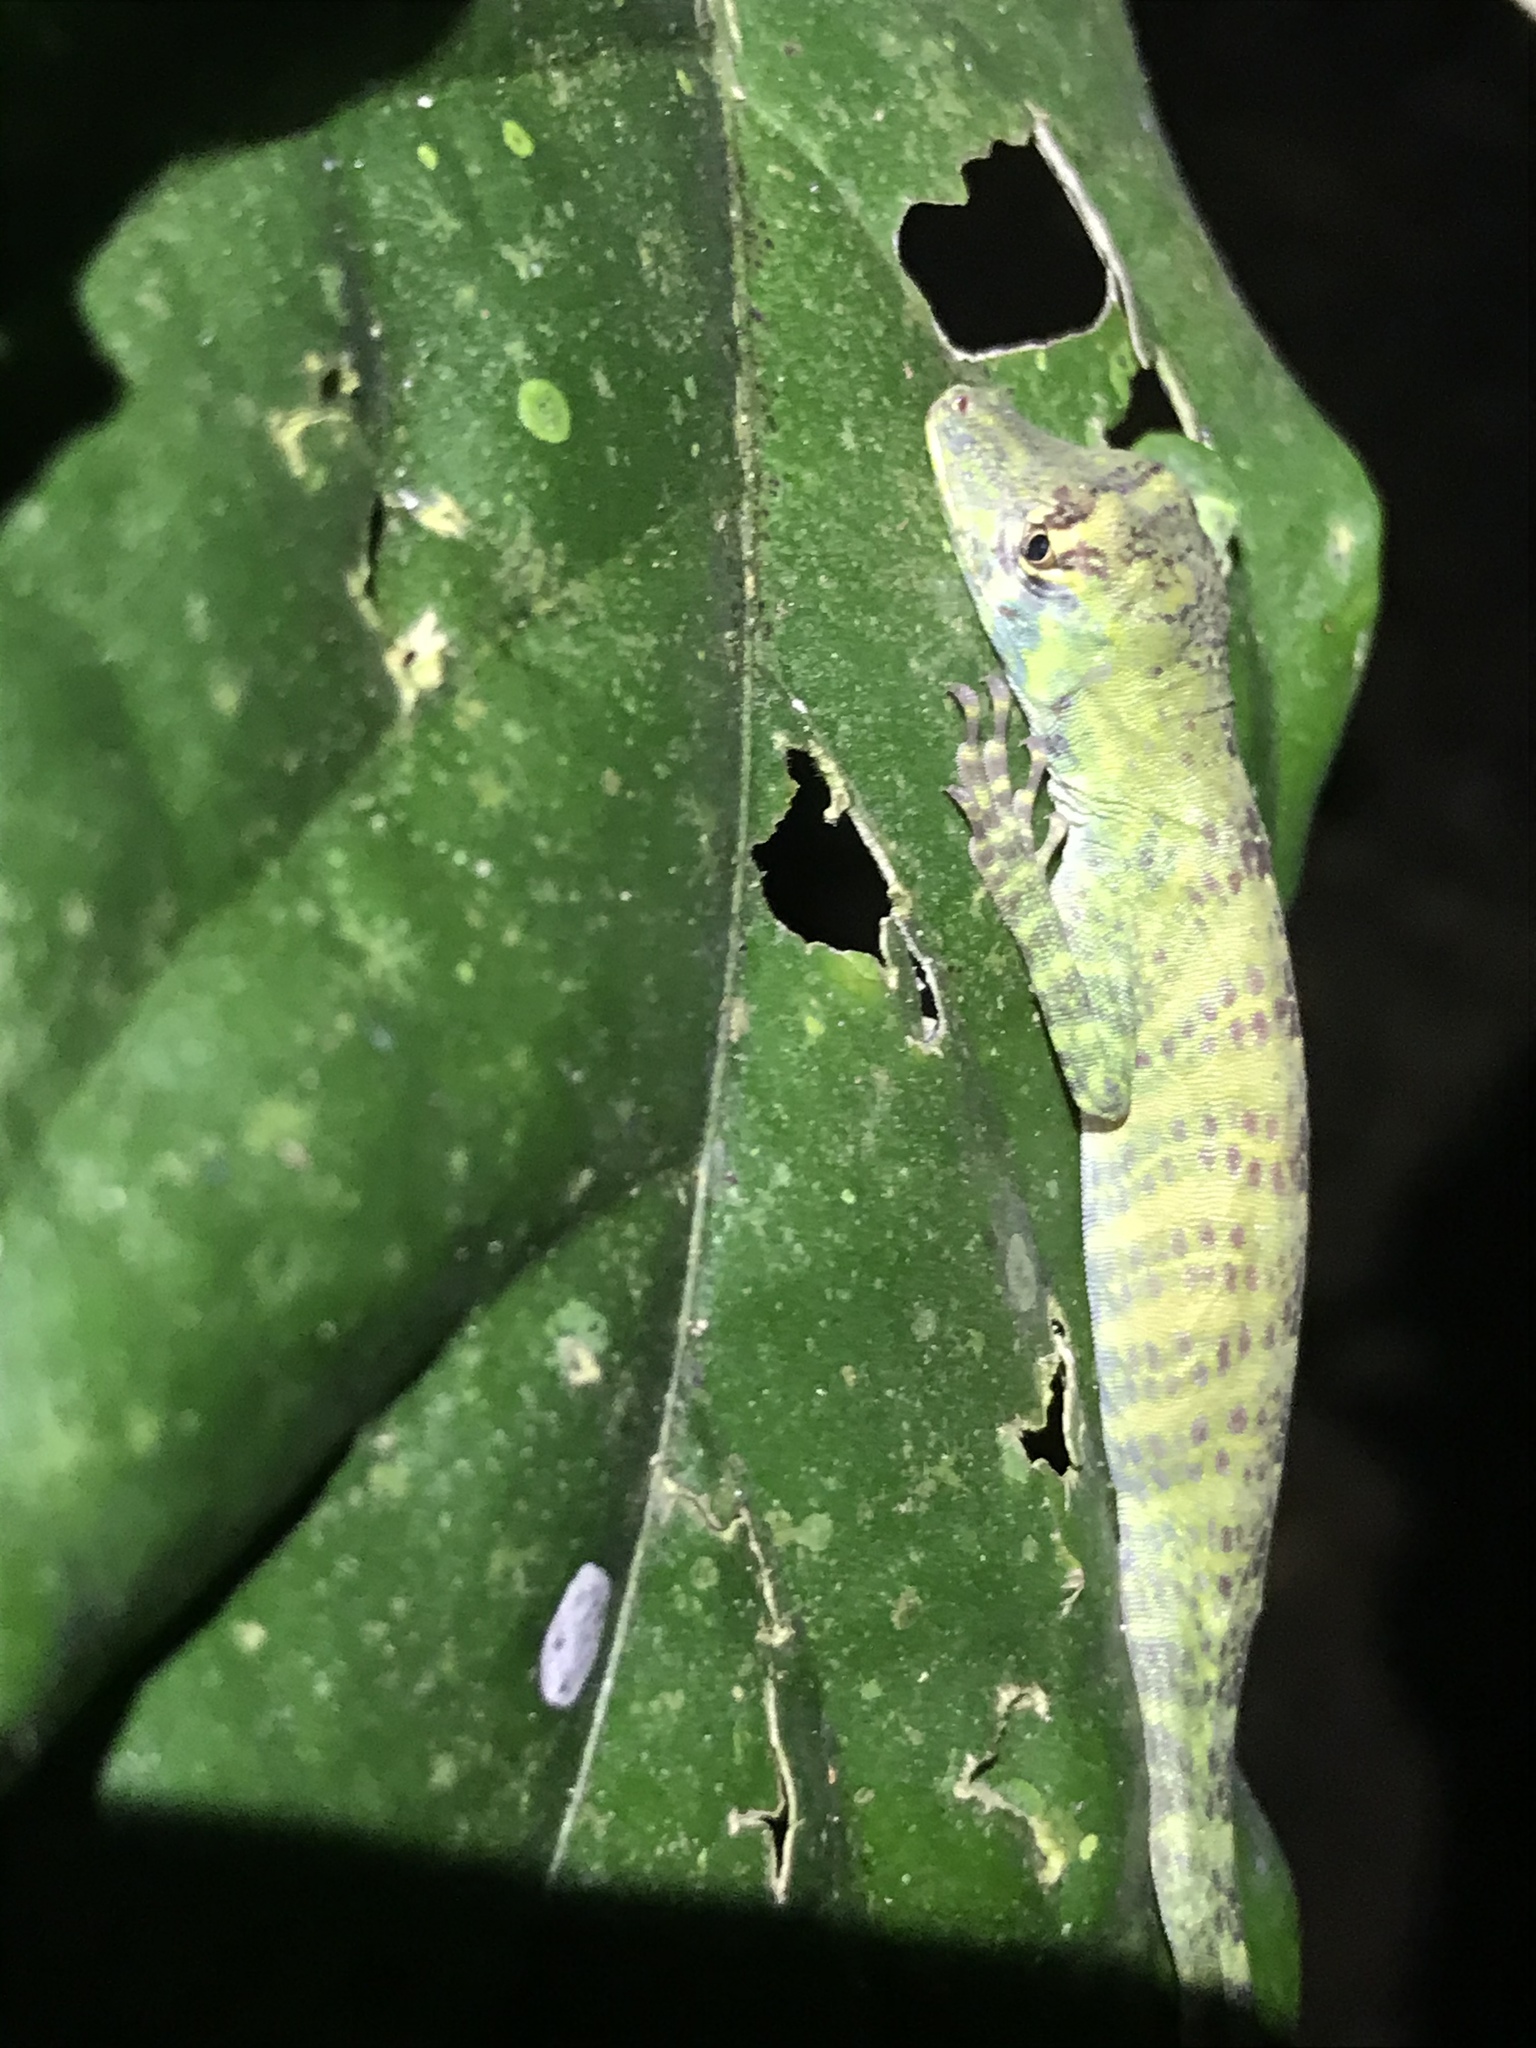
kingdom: Animalia
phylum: Chordata
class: Squamata
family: Dactyloidae
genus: Anolis
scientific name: Anolis frenatus
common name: Bridled anole
